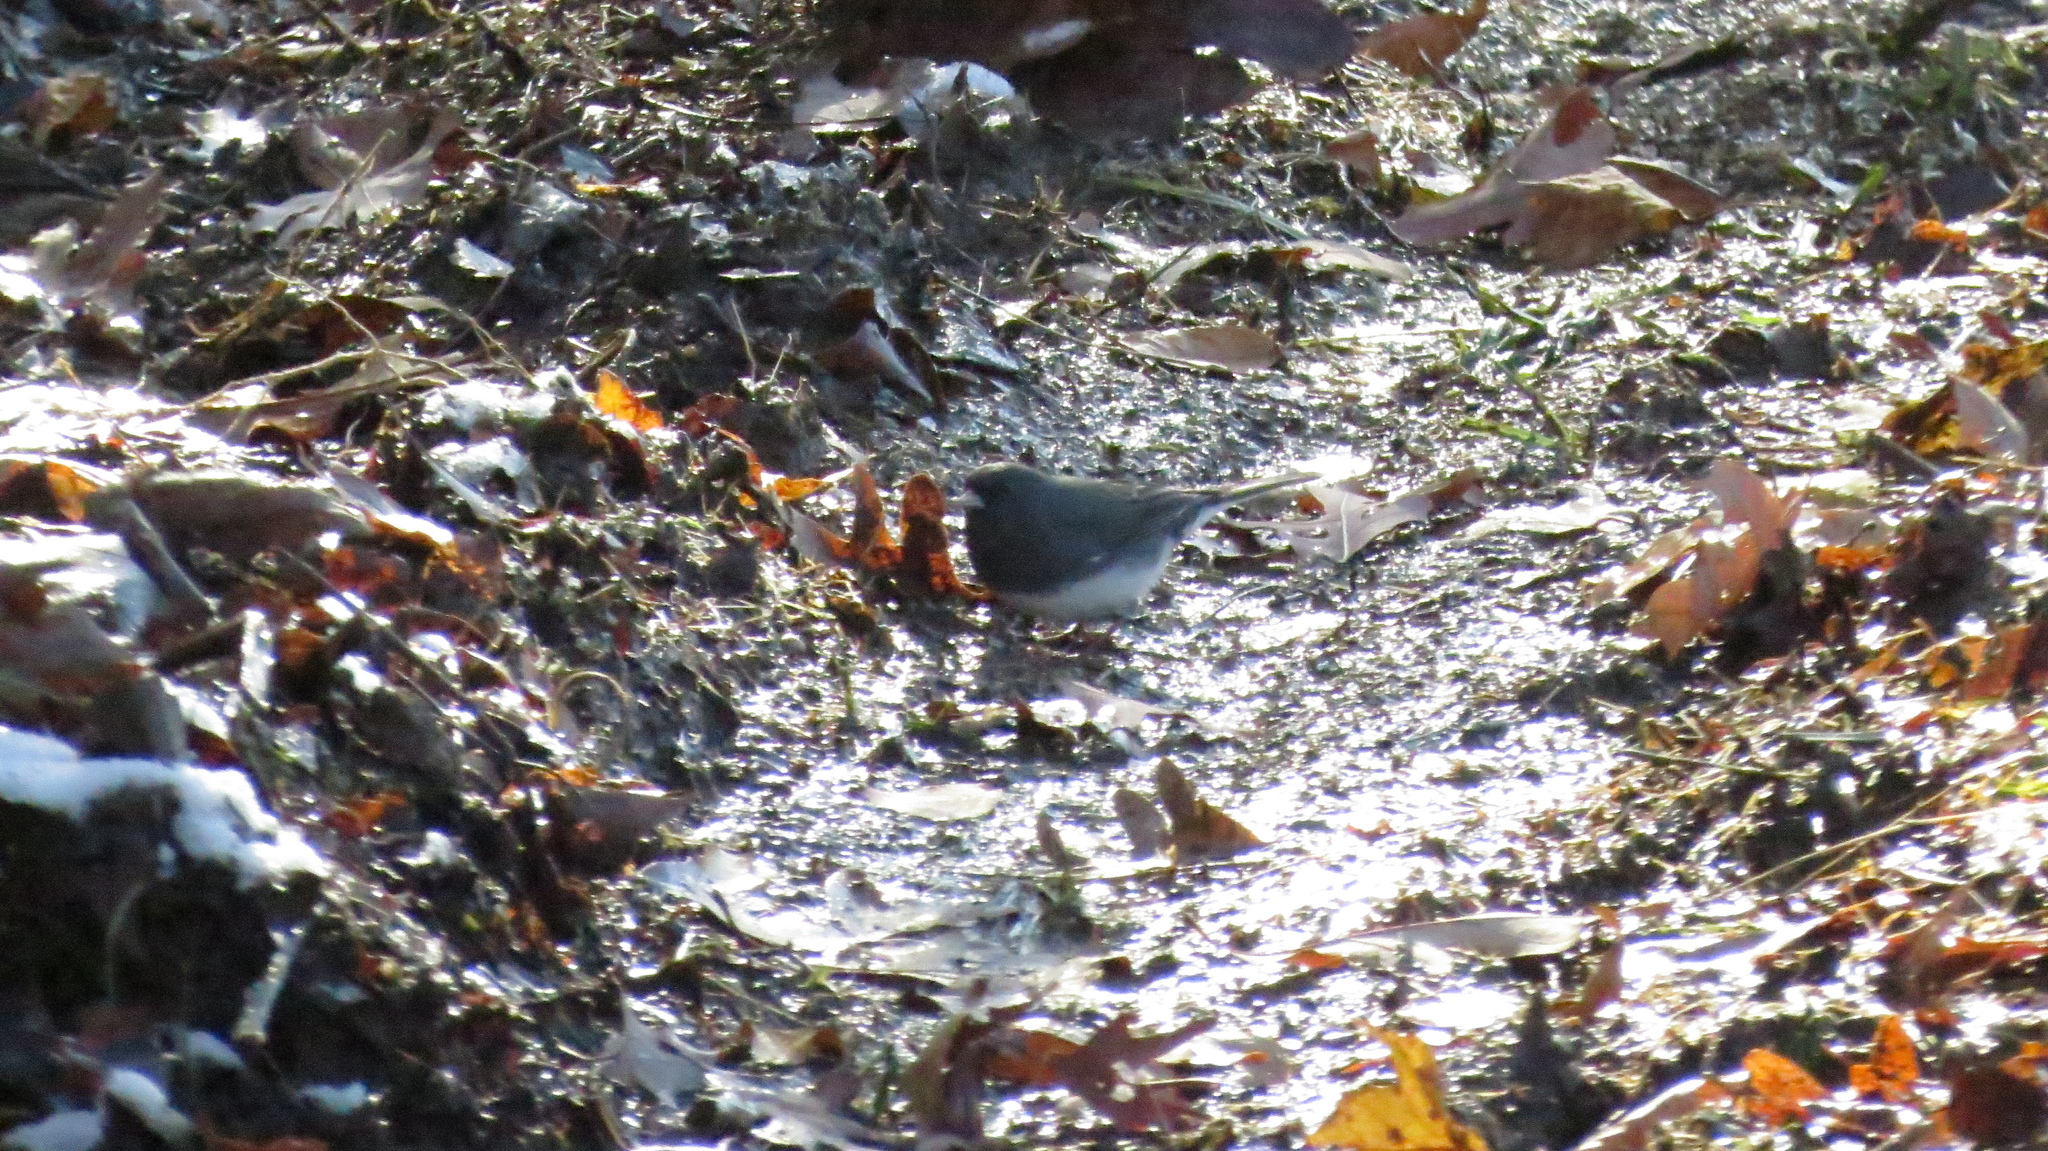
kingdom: Animalia
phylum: Chordata
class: Aves
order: Passeriformes
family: Passerellidae
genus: Junco
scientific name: Junco hyemalis
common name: Dark-eyed junco
